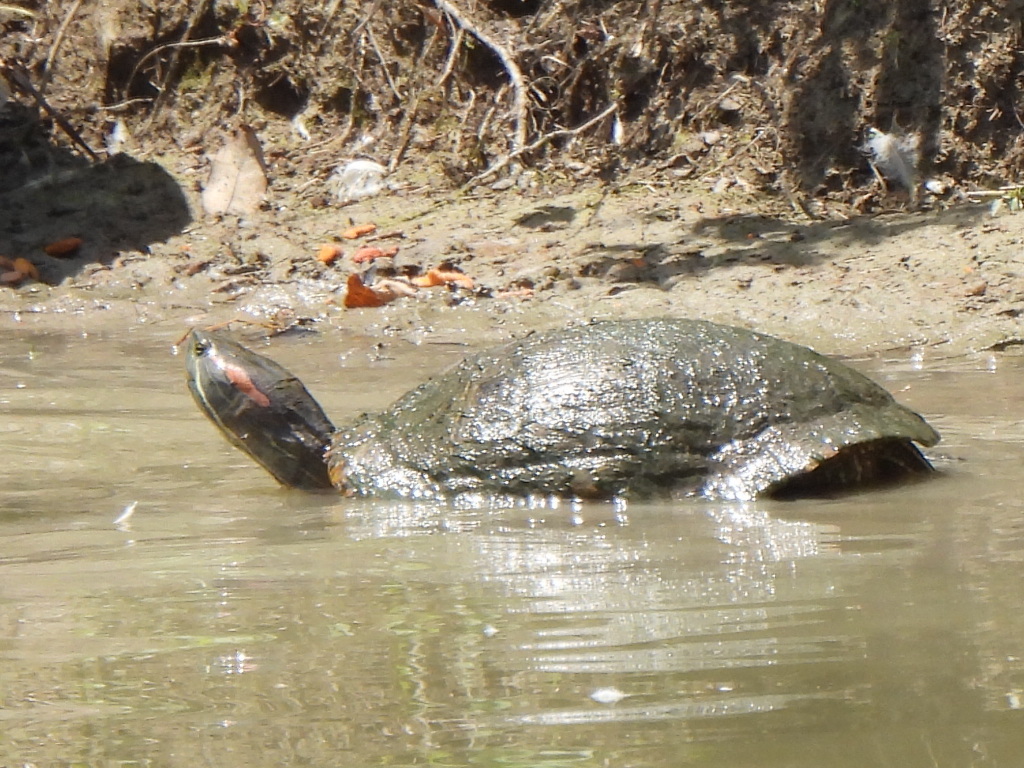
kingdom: Animalia
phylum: Chordata
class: Testudines
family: Emydidae
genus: Trachemys
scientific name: Trachemys scripta
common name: Slider
